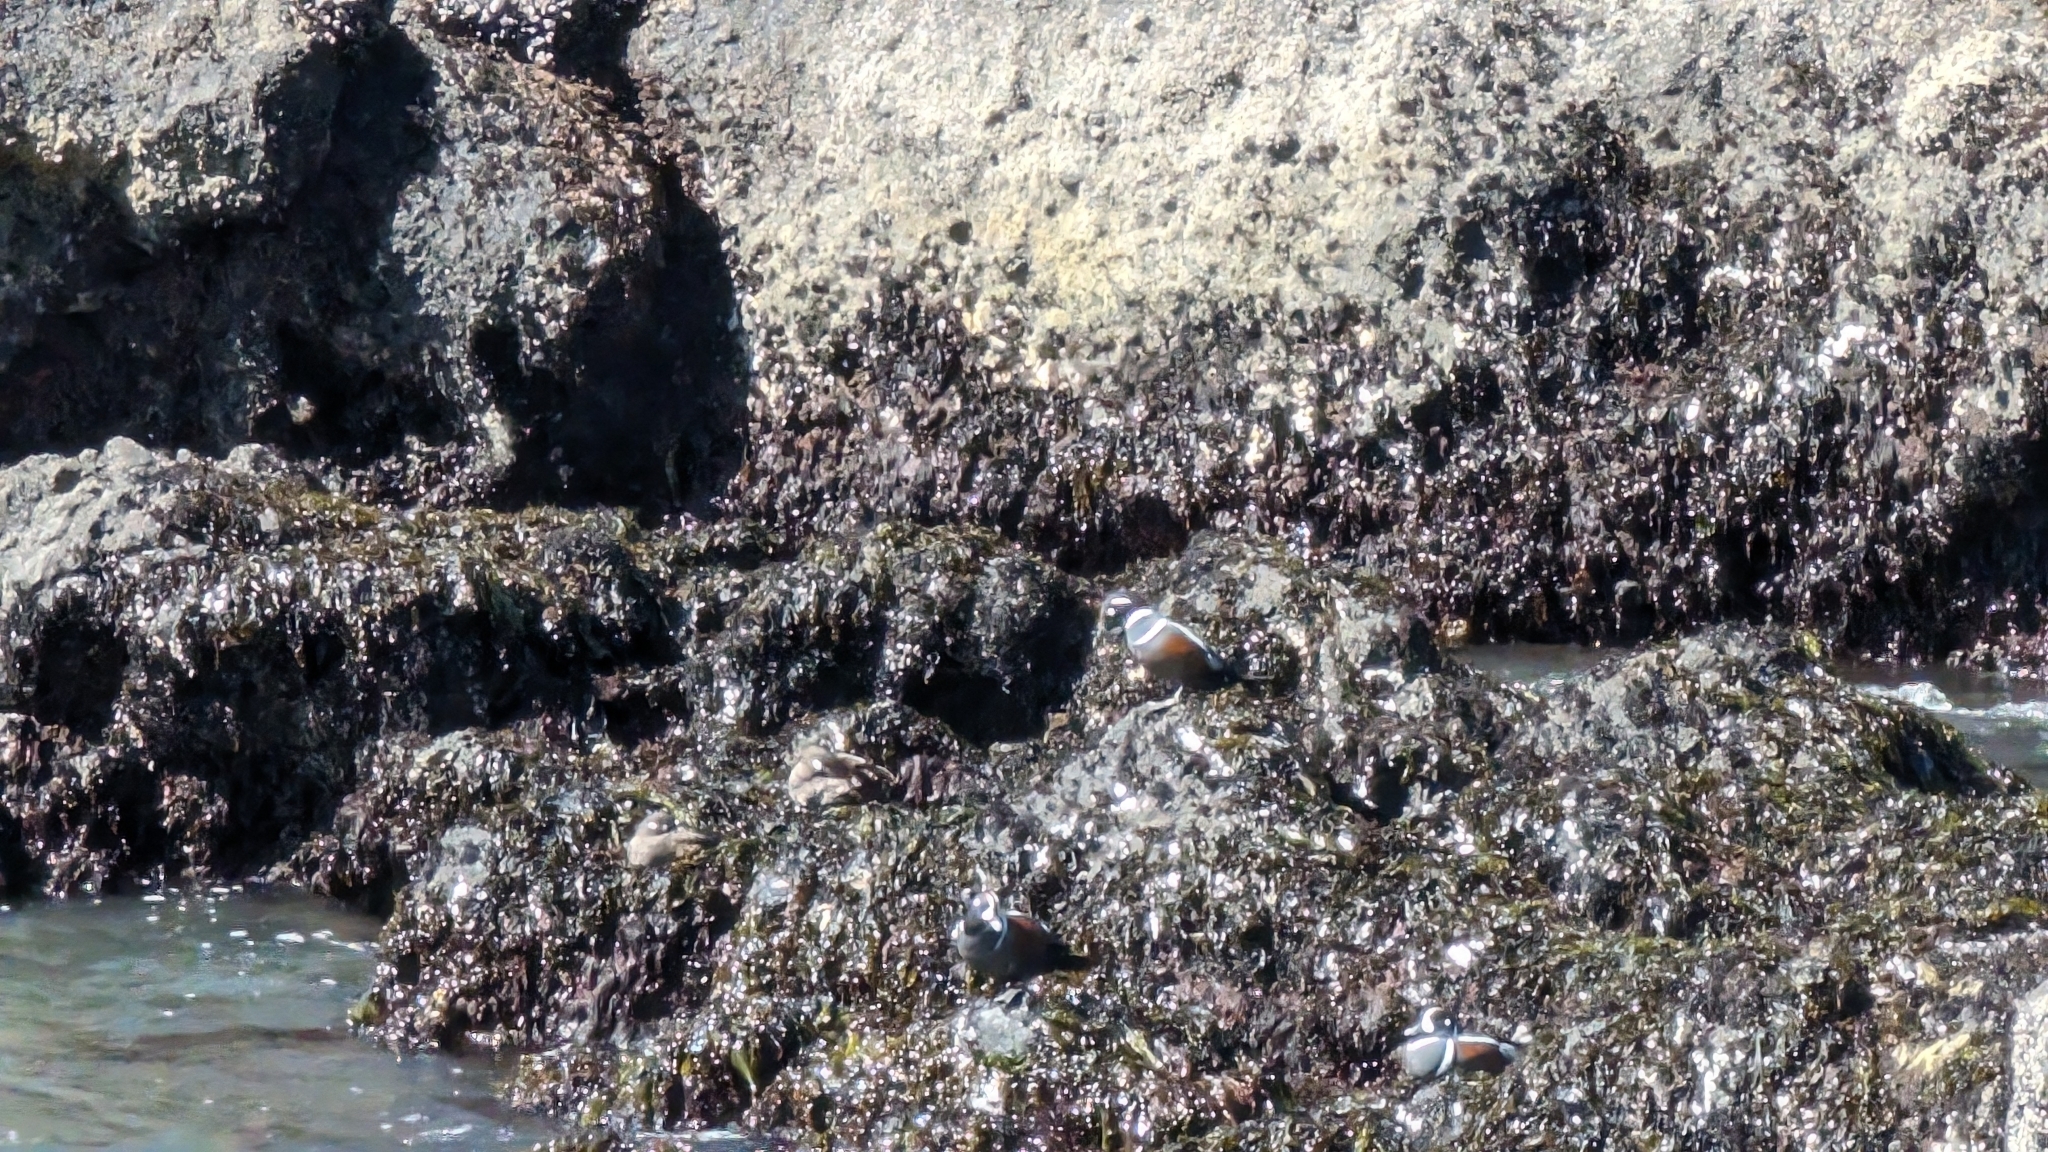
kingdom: Animalia
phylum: Chordata
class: Aves
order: Anseriformes
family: Anatidae
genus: Histrionicus
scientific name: Histrionicus histrionicus
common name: Harlequin duck
